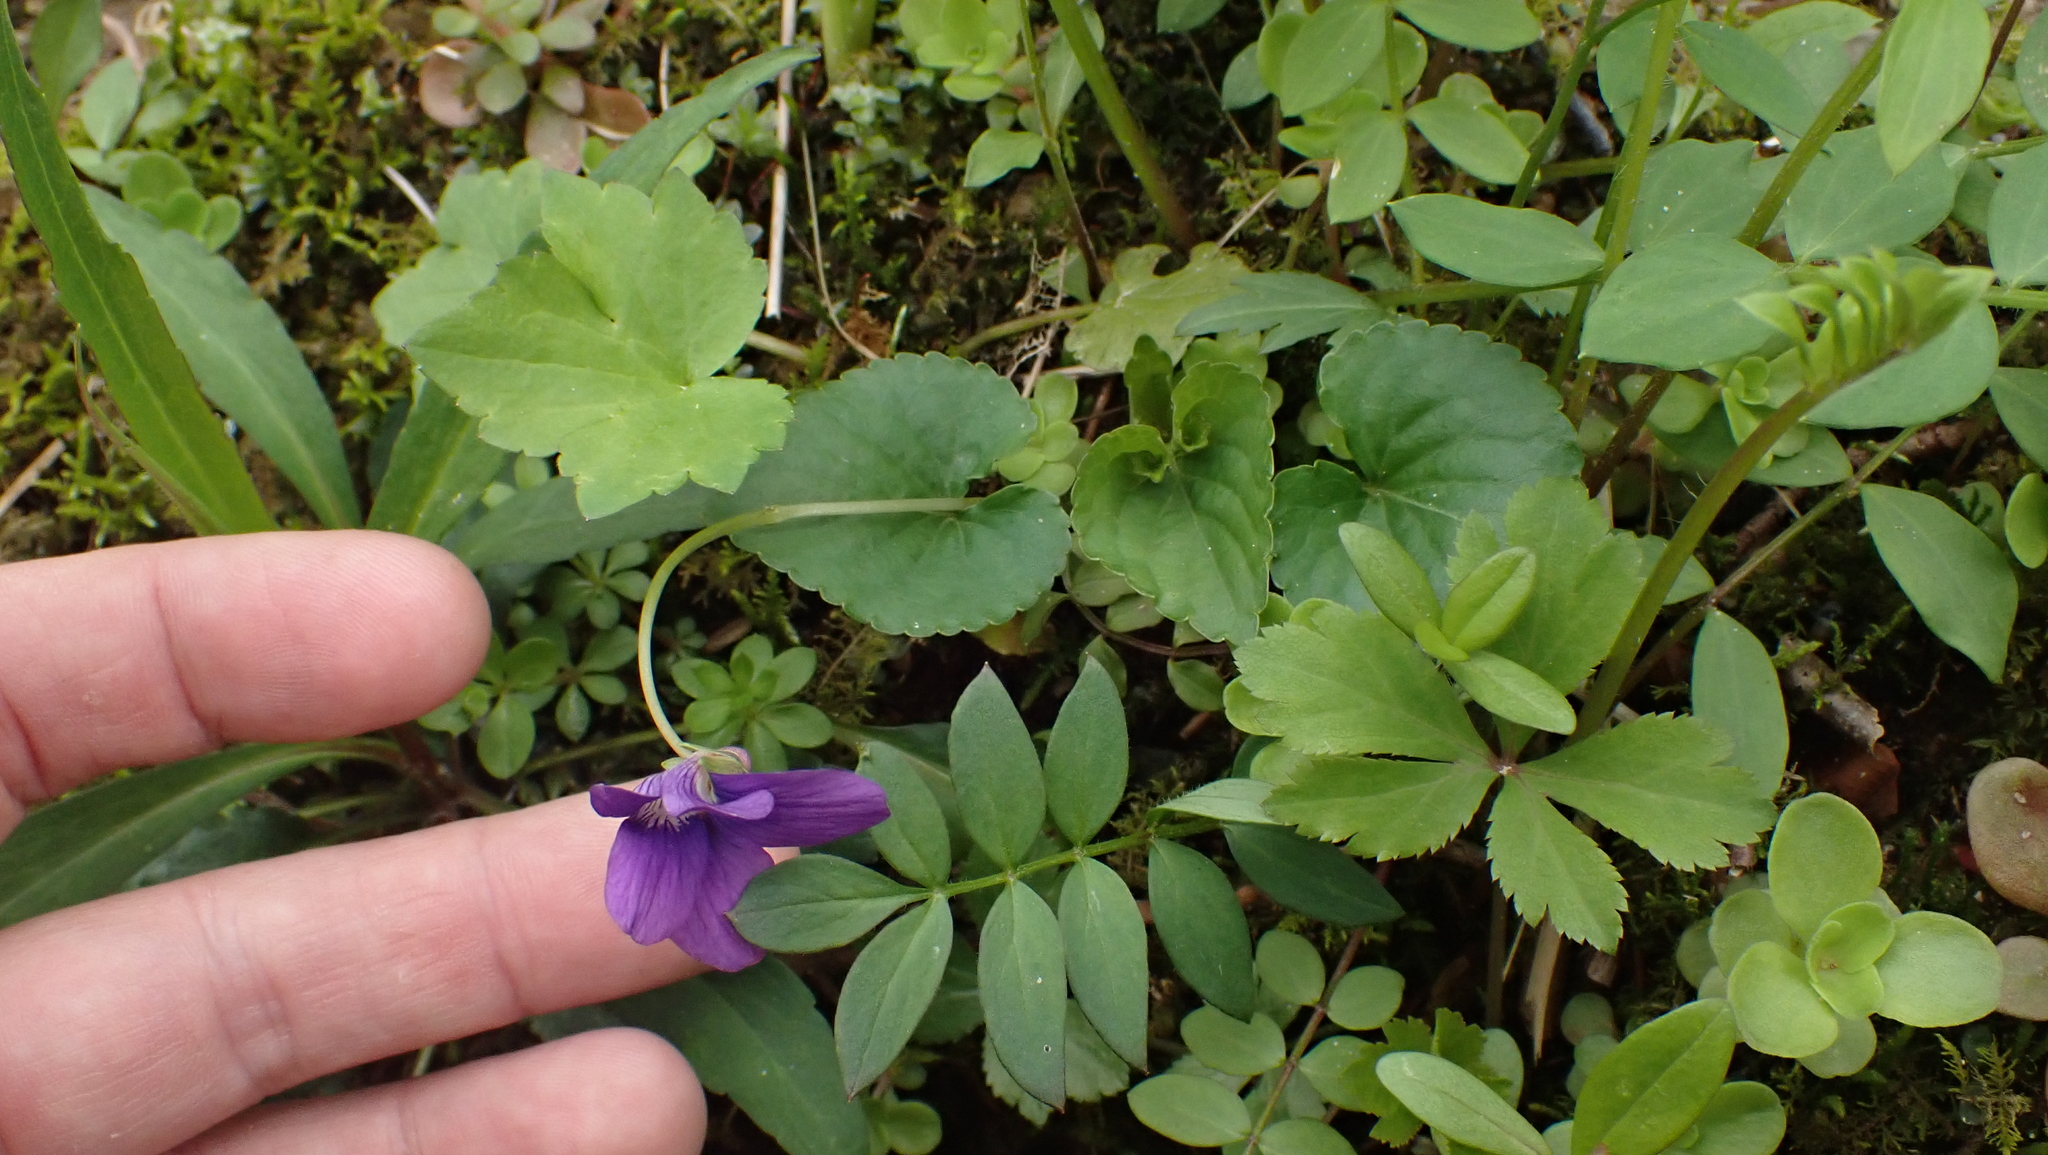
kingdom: Plantae
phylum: Tracheophyta
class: Magnoliopsida
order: Malpighiales
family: Violaceae
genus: Viola
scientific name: Viola sororia
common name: Dooryard violet
